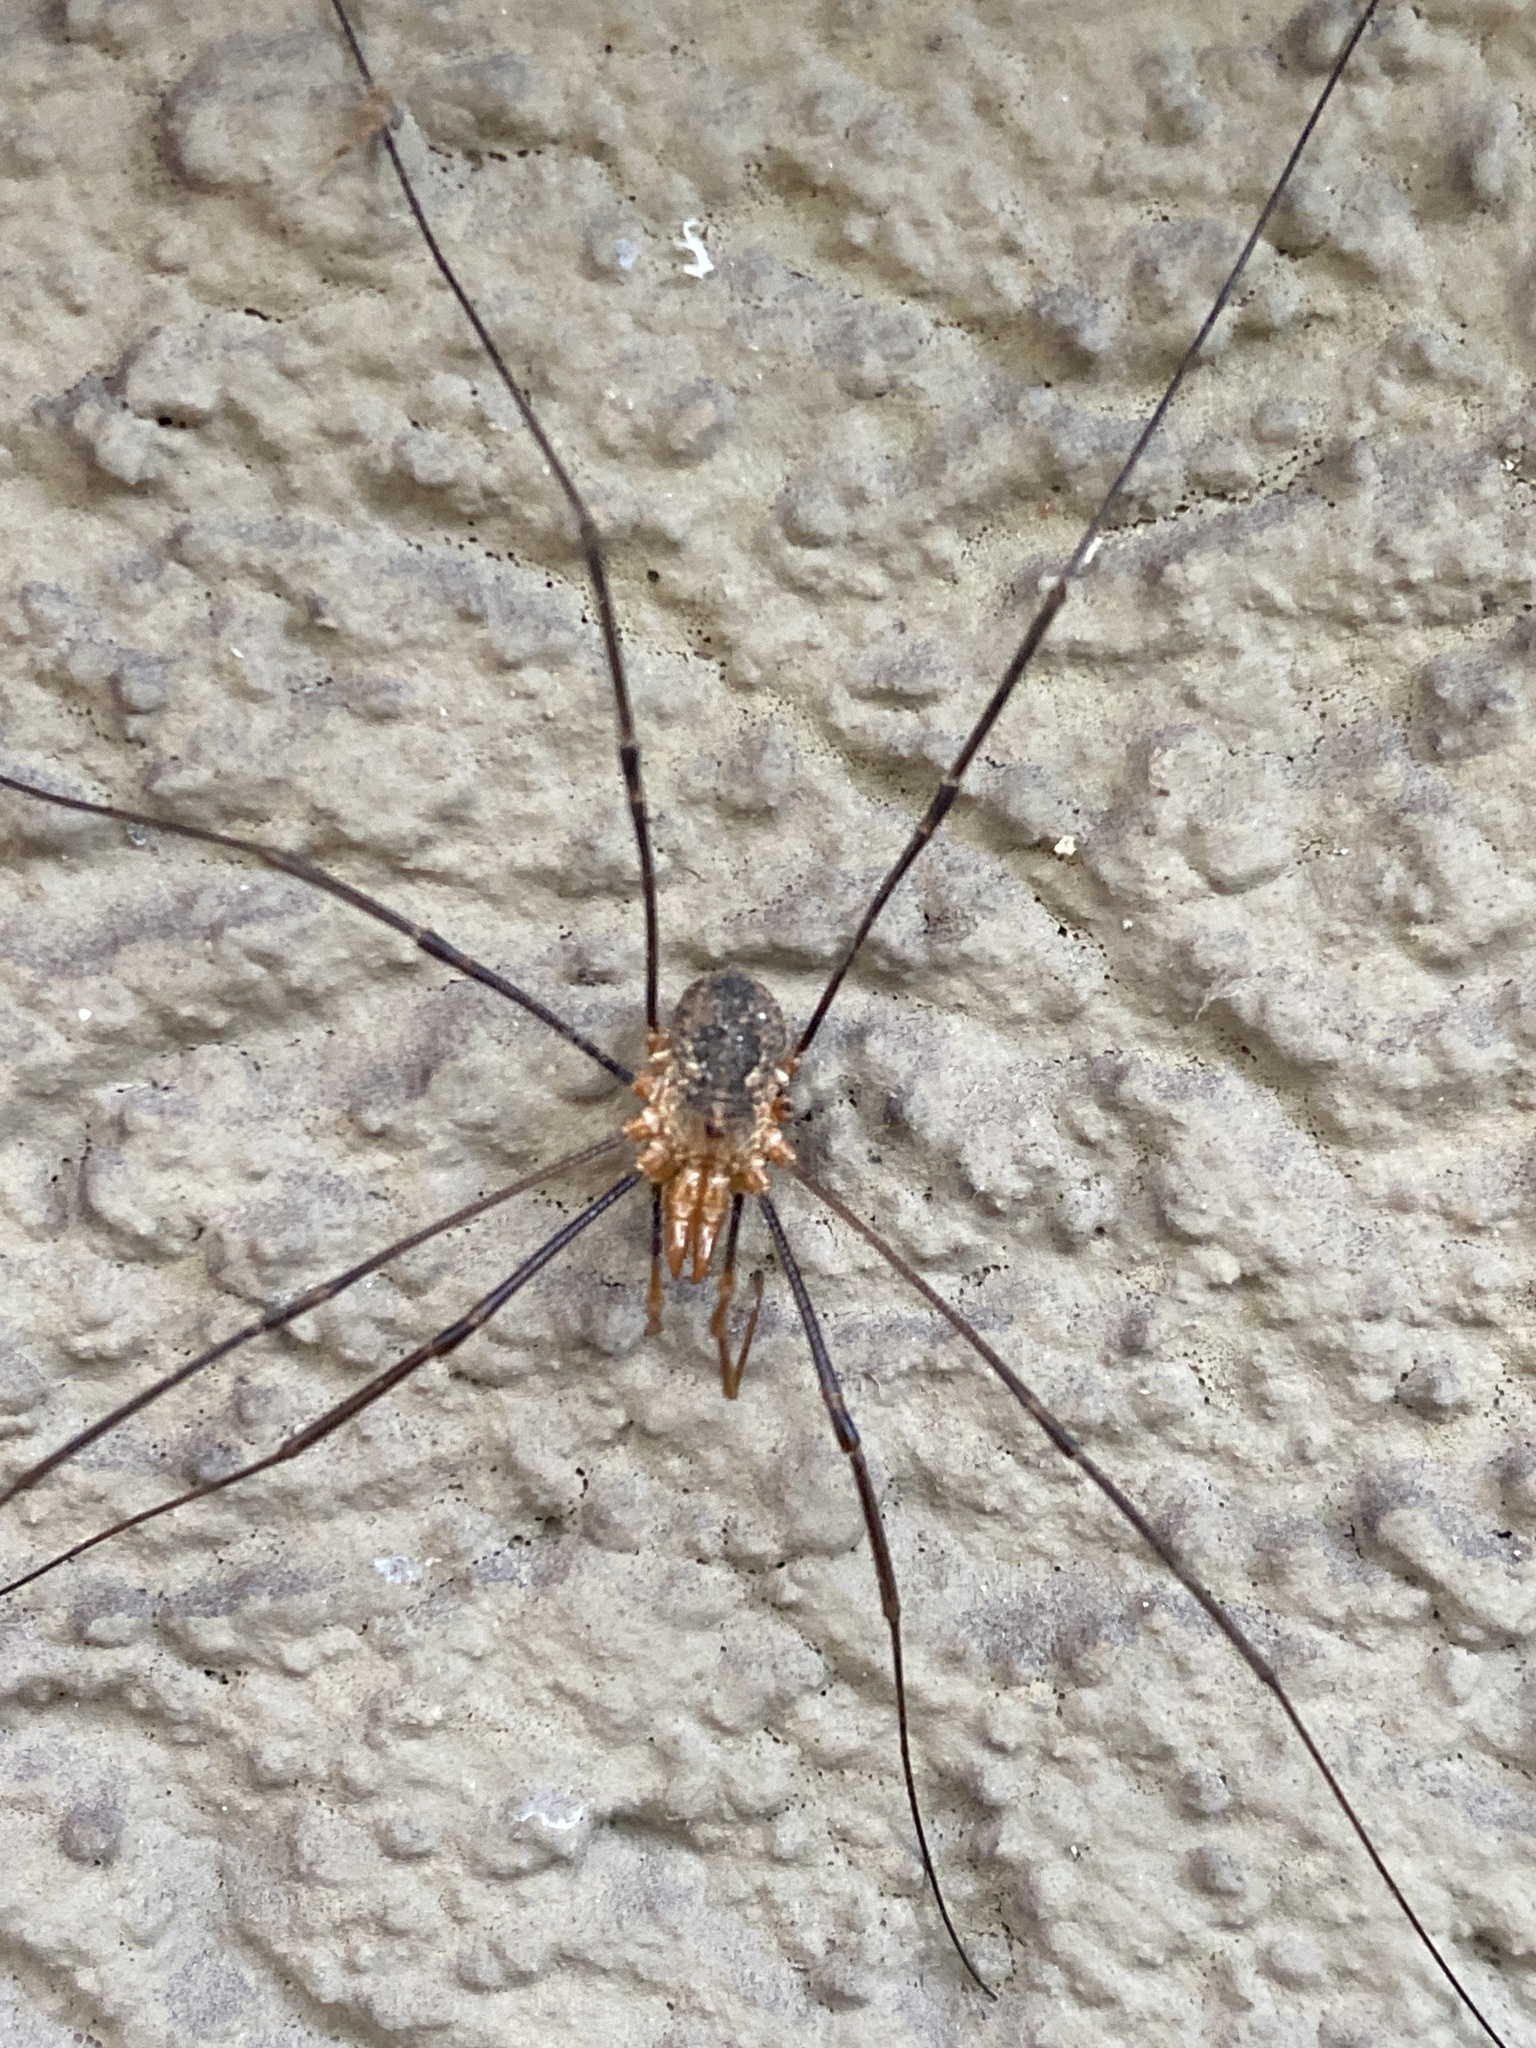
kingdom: Animalia
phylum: Arthropoda
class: Arachnida
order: Opiliones
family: Phalangiidae
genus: Phalangium
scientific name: Phalangium opilio
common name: Daddy longleg
